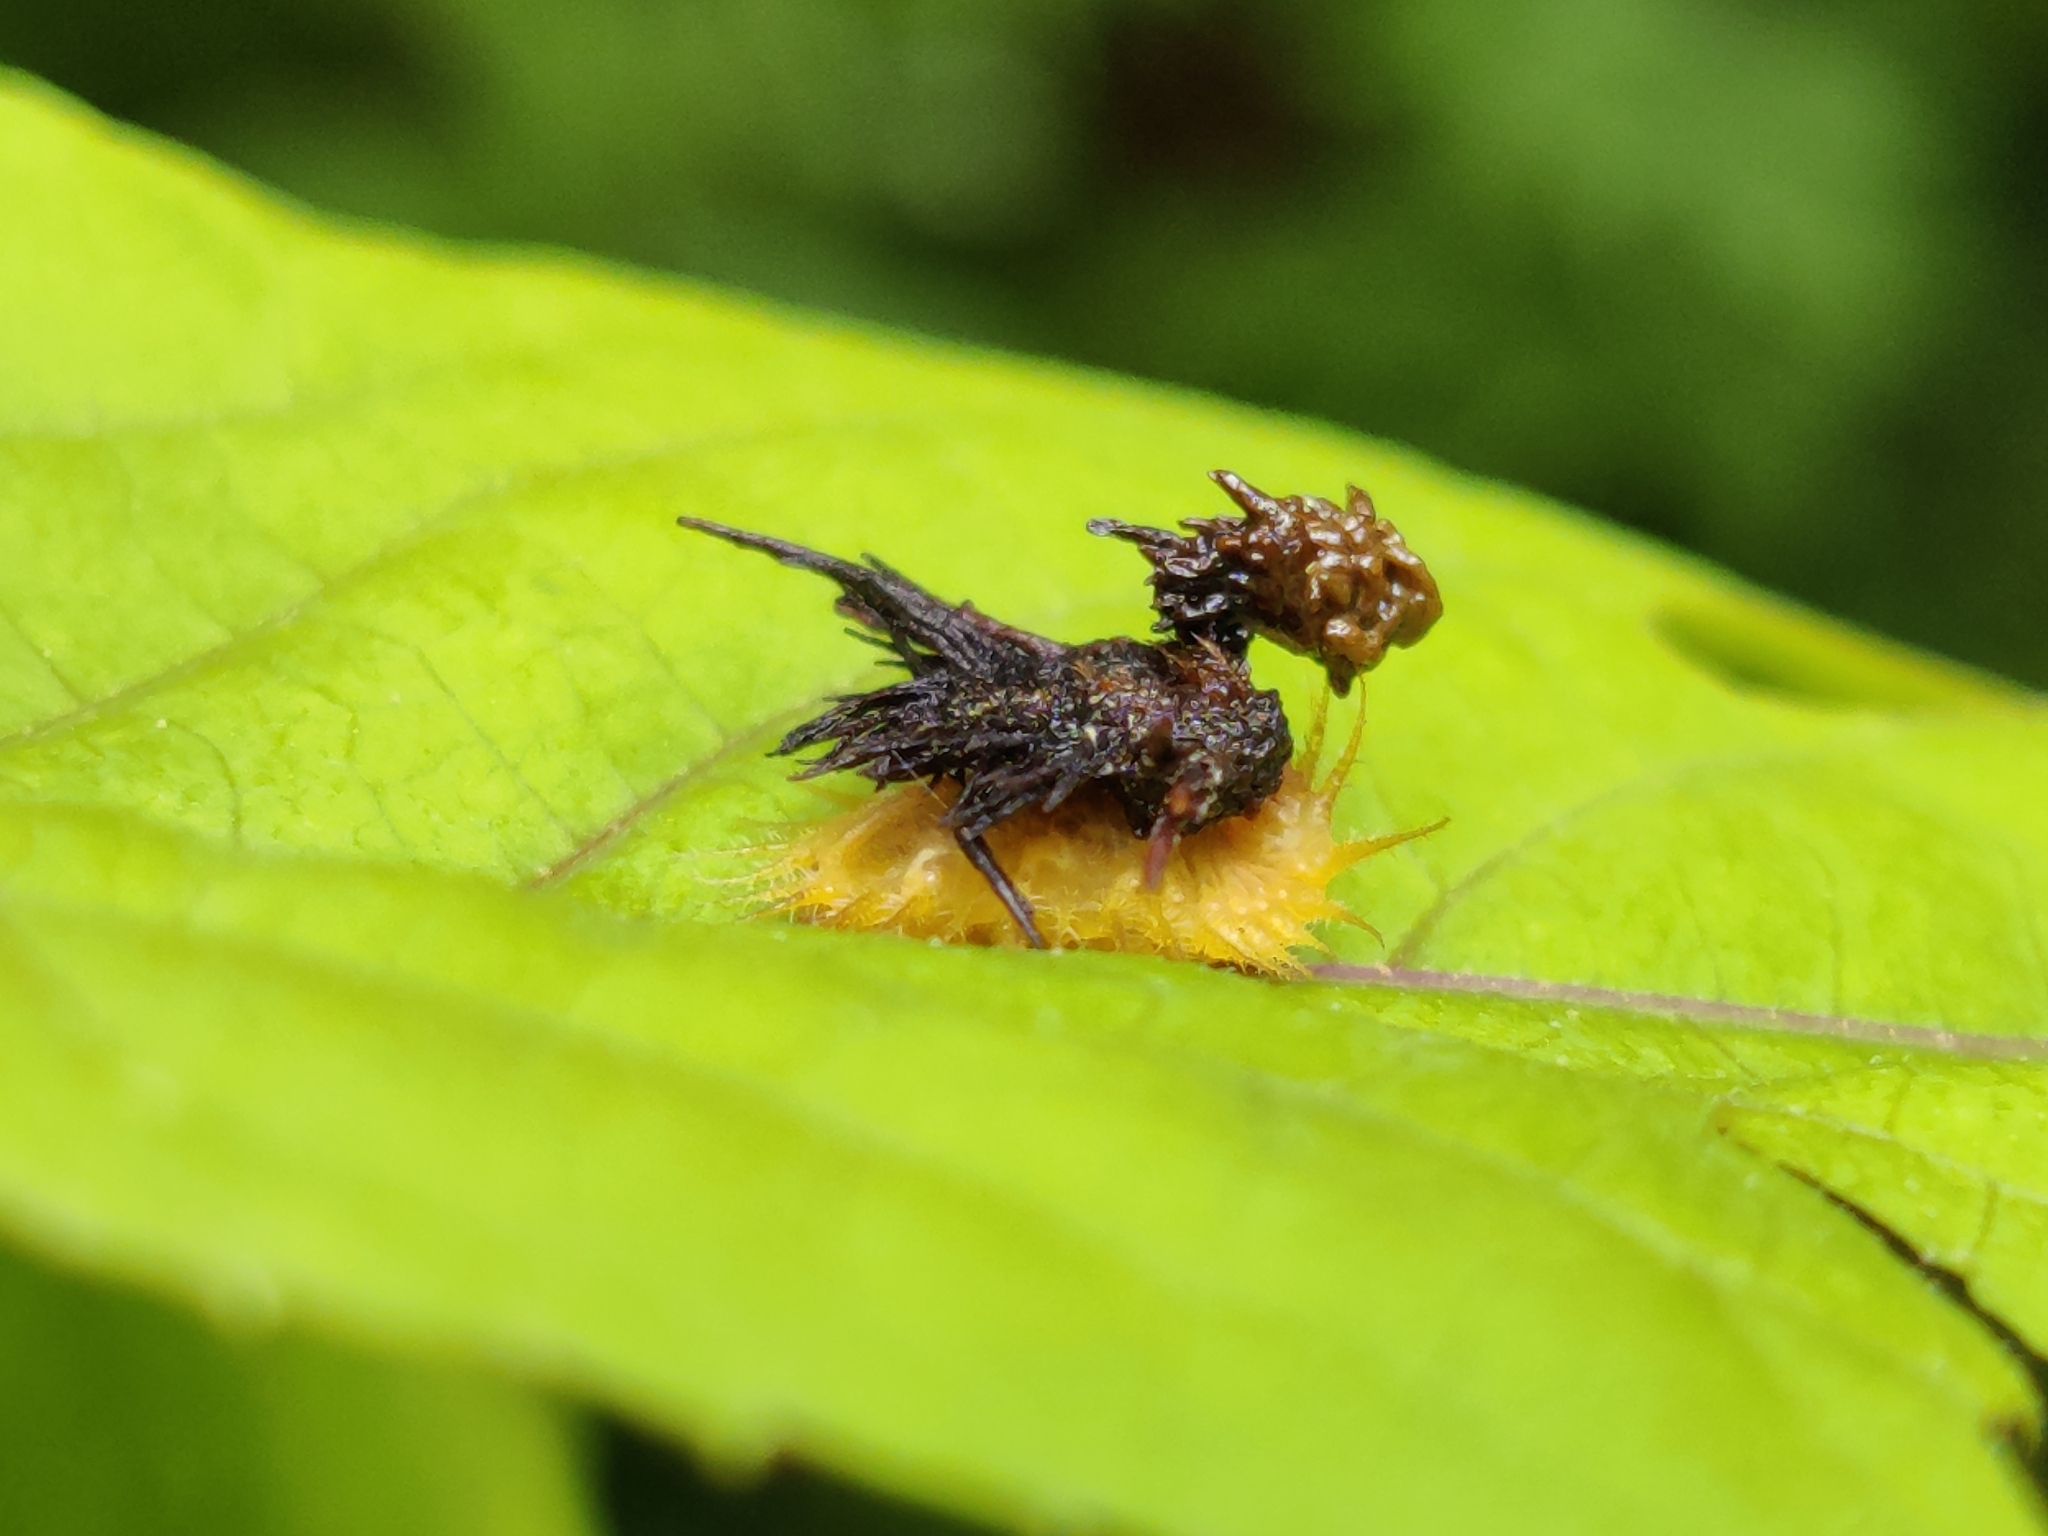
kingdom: Animalia
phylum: Arthropoda
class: Insecta
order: Coleoptera
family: Chrysomelidae
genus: Thlaspida
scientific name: Thlaspida biramosa
